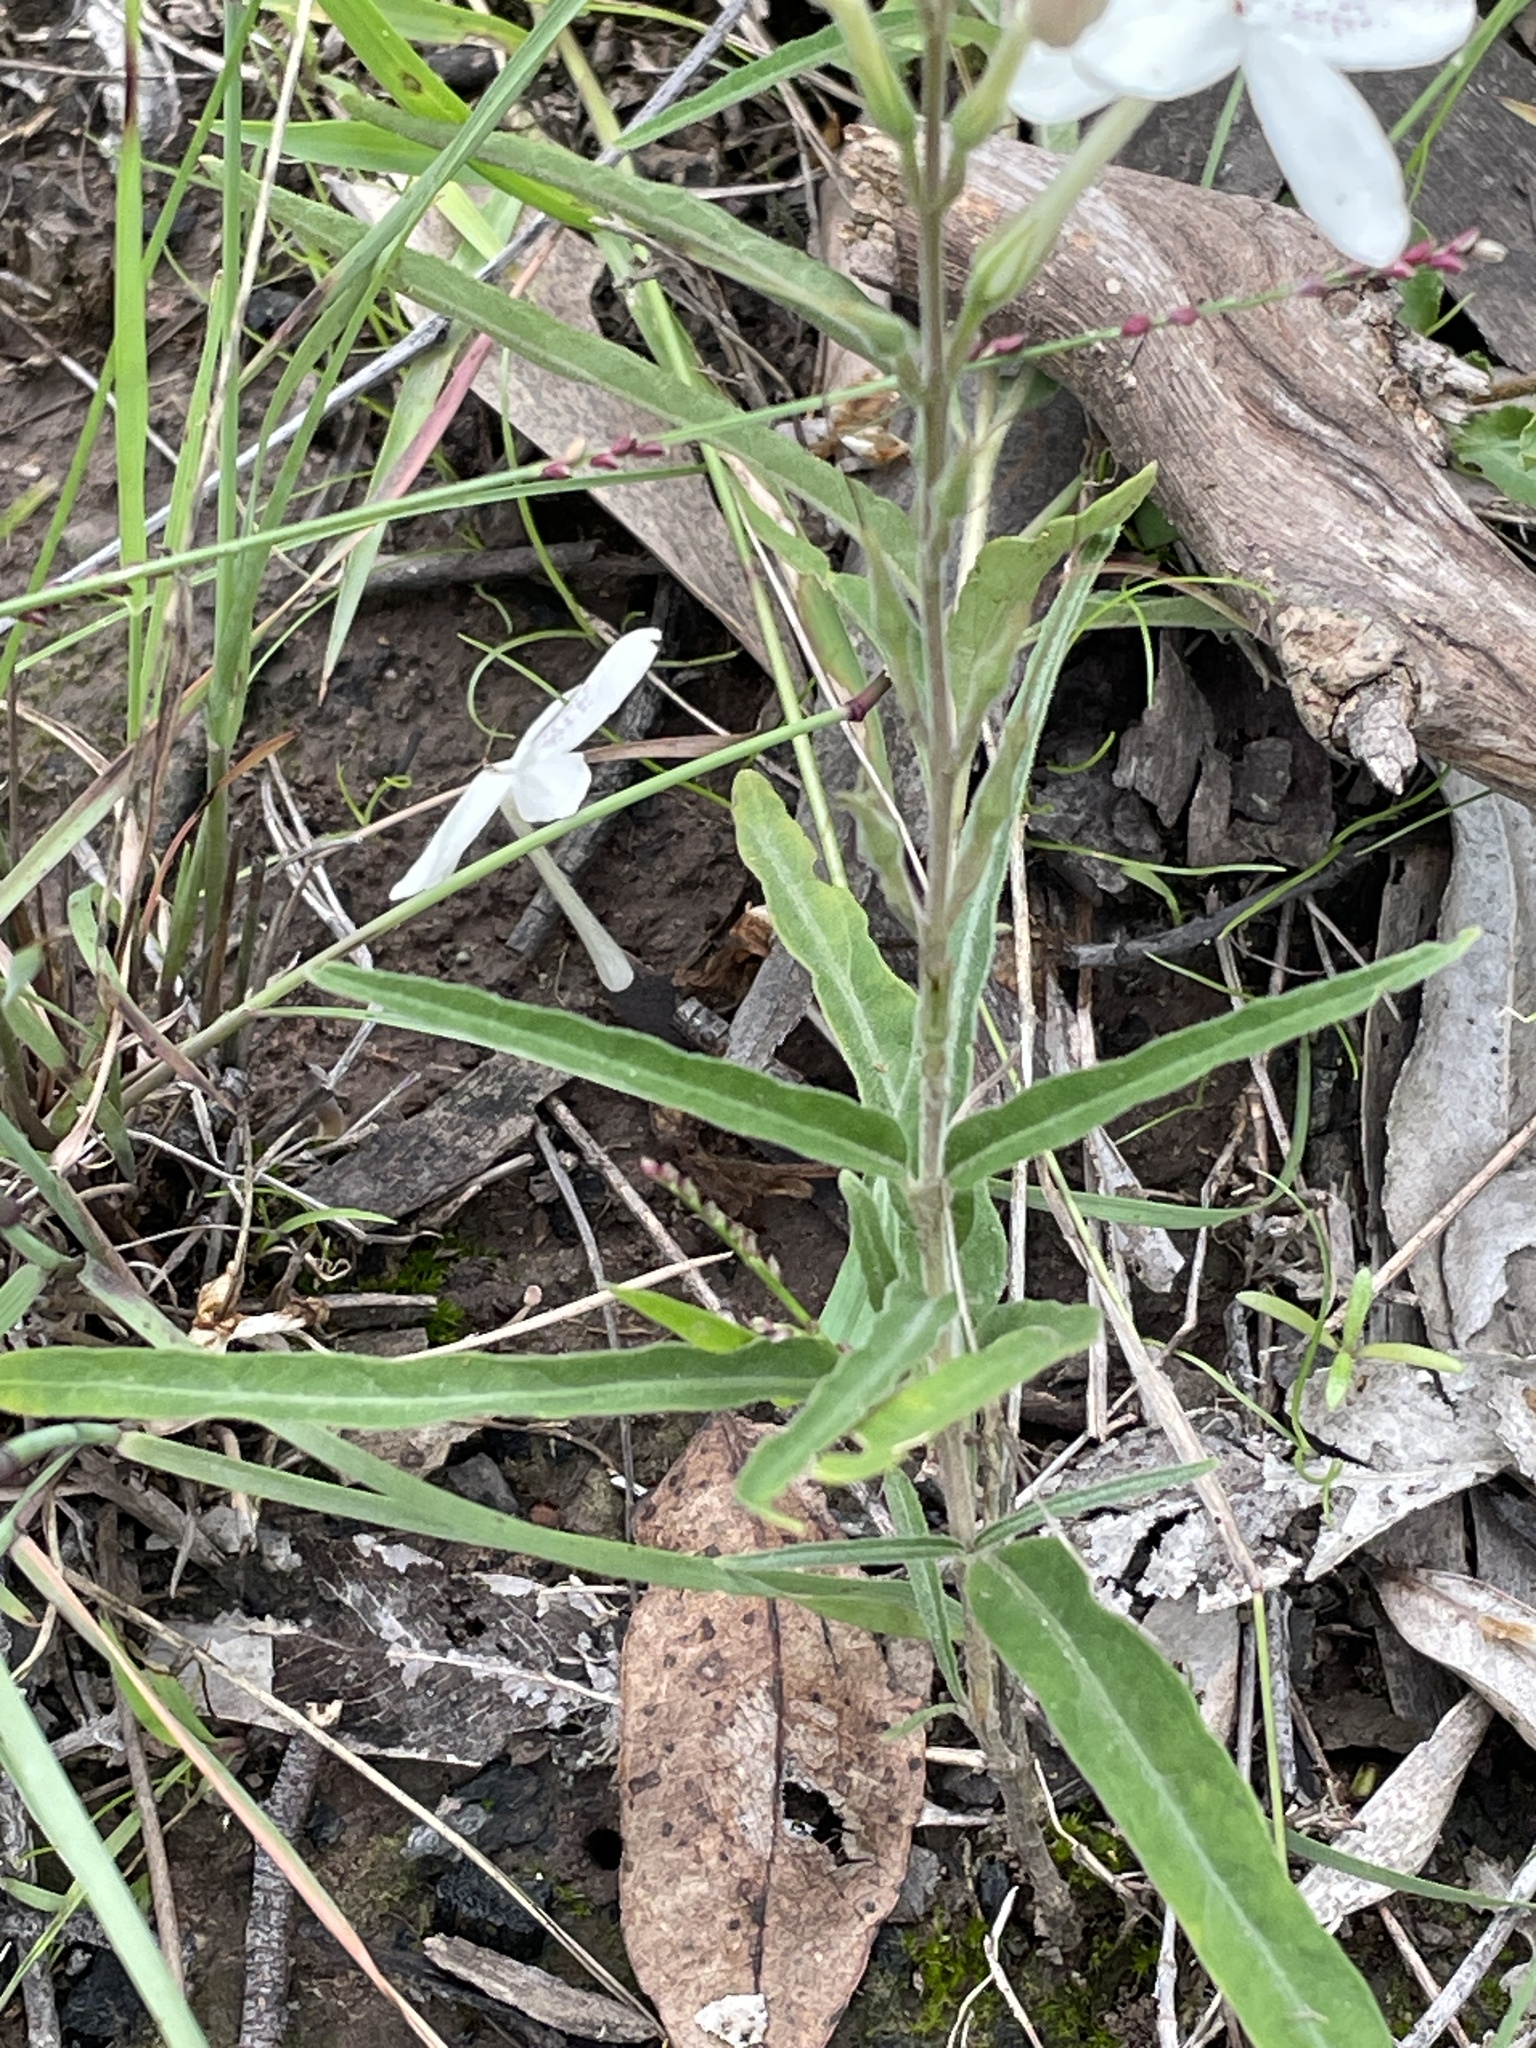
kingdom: Plantae
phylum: Tracheophyta
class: Magnoliopsida
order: Lamiales
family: Acanthaceae
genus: Pseuderanthemum
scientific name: Pseuderanthemum variabile
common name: Night and afternoon
